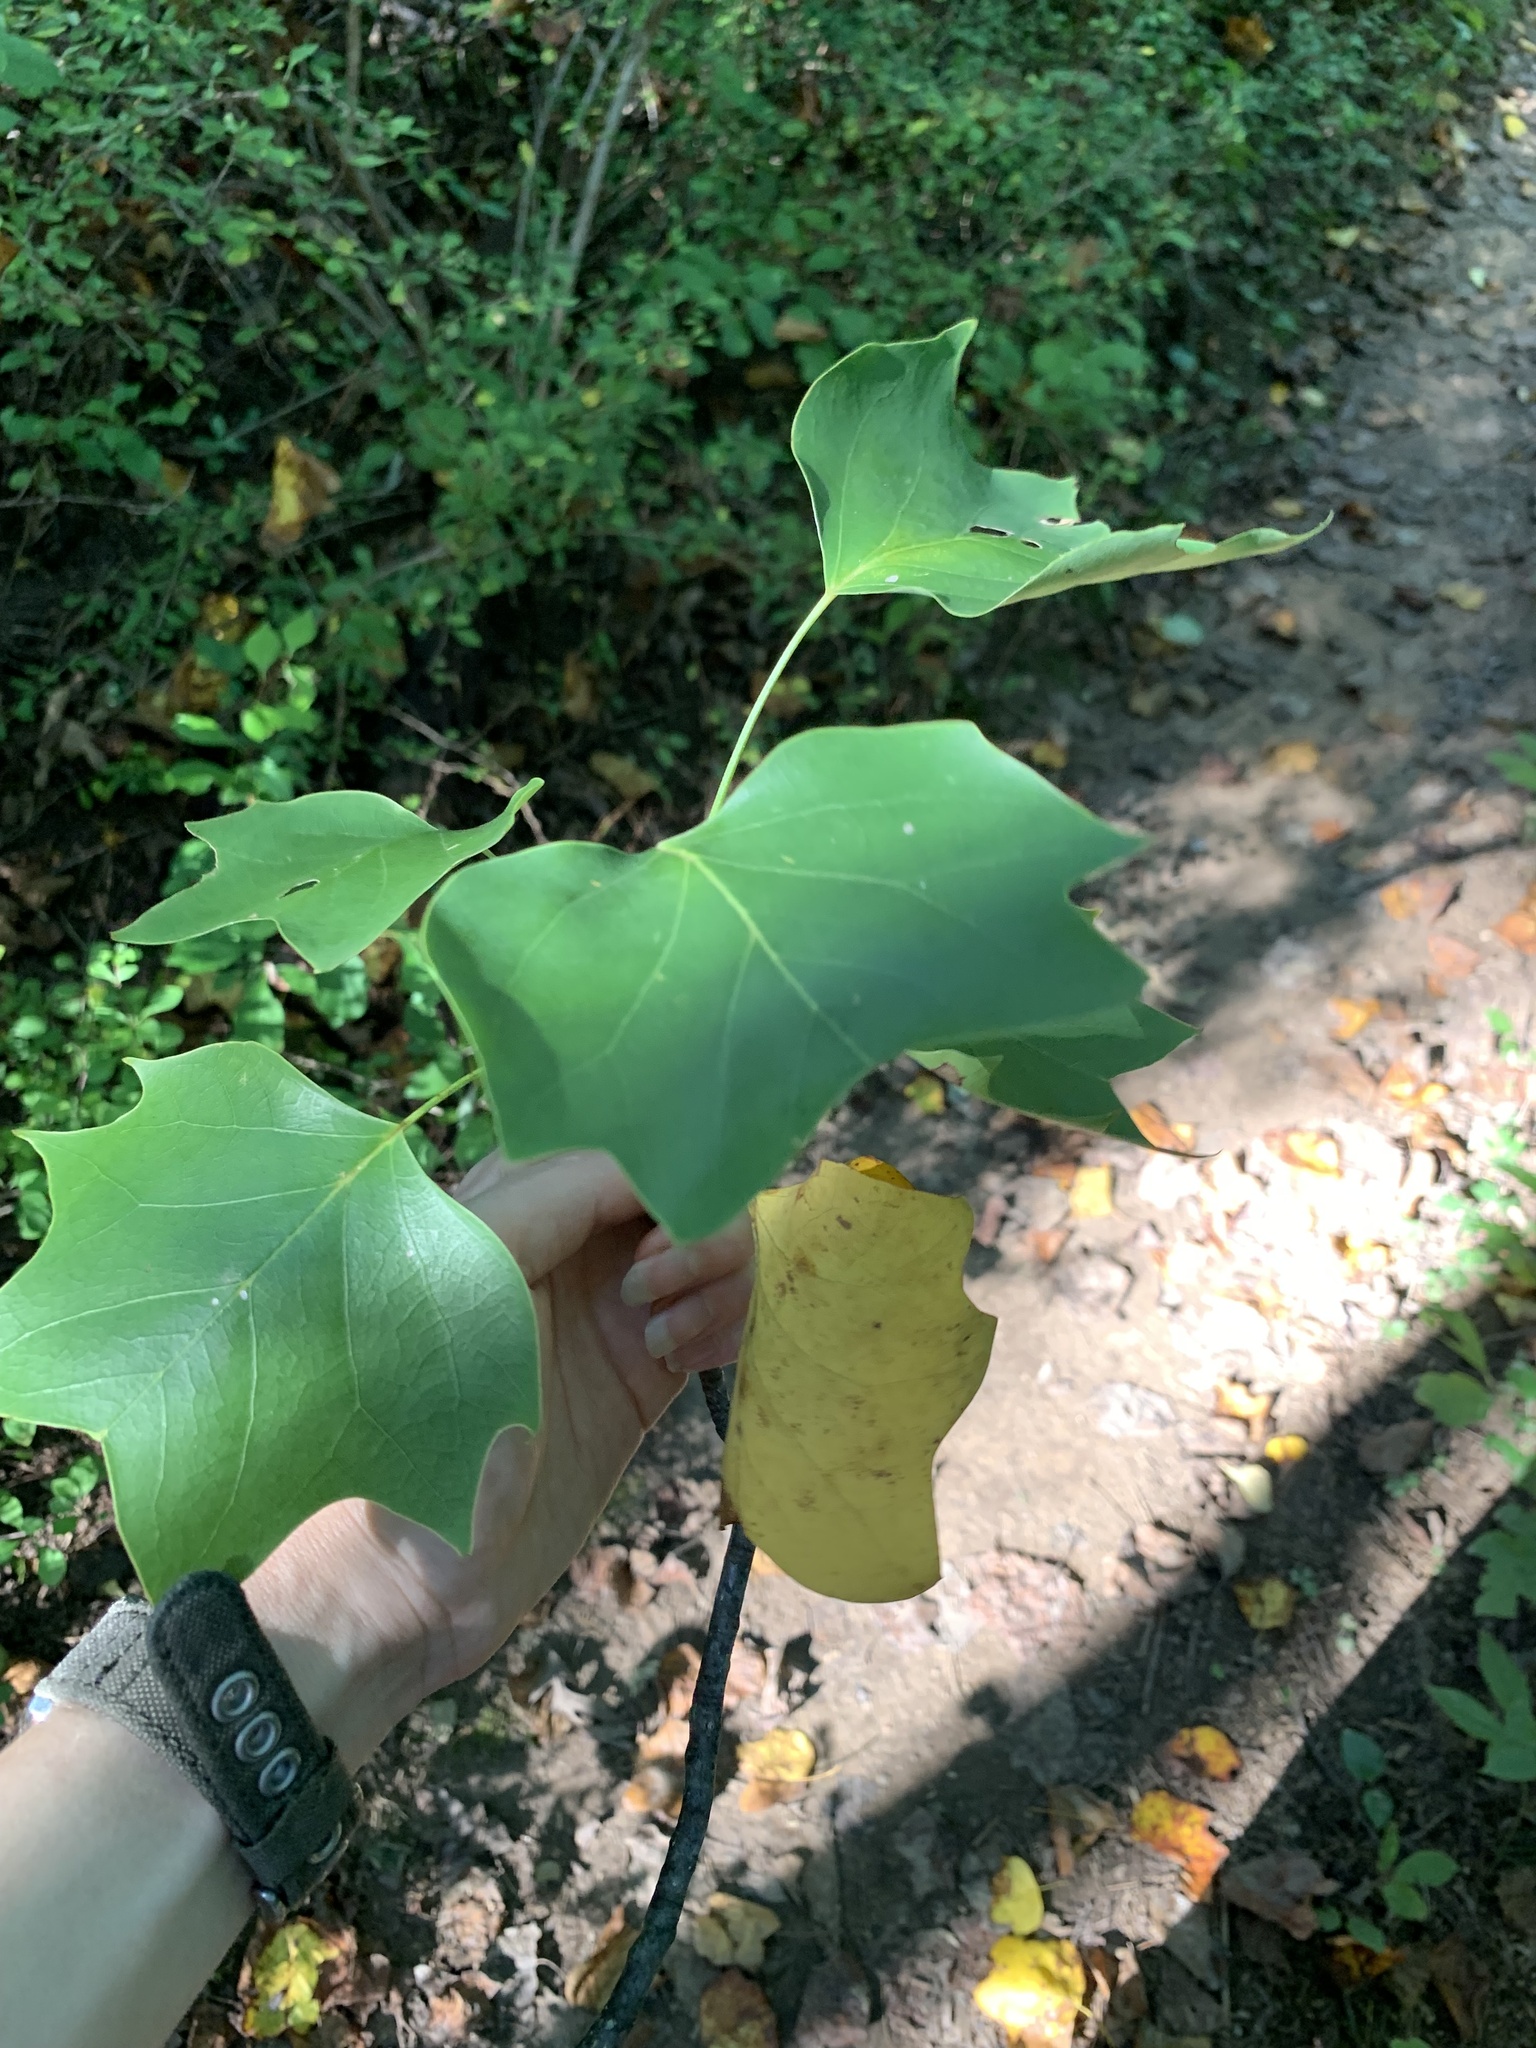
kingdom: Plantae
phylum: Tracheophyta
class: Magnoliopsida
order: Magnoliales
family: Magnoliaceae
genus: Liriodendron
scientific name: Liriodendron tulipifera
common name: Tulip tree
